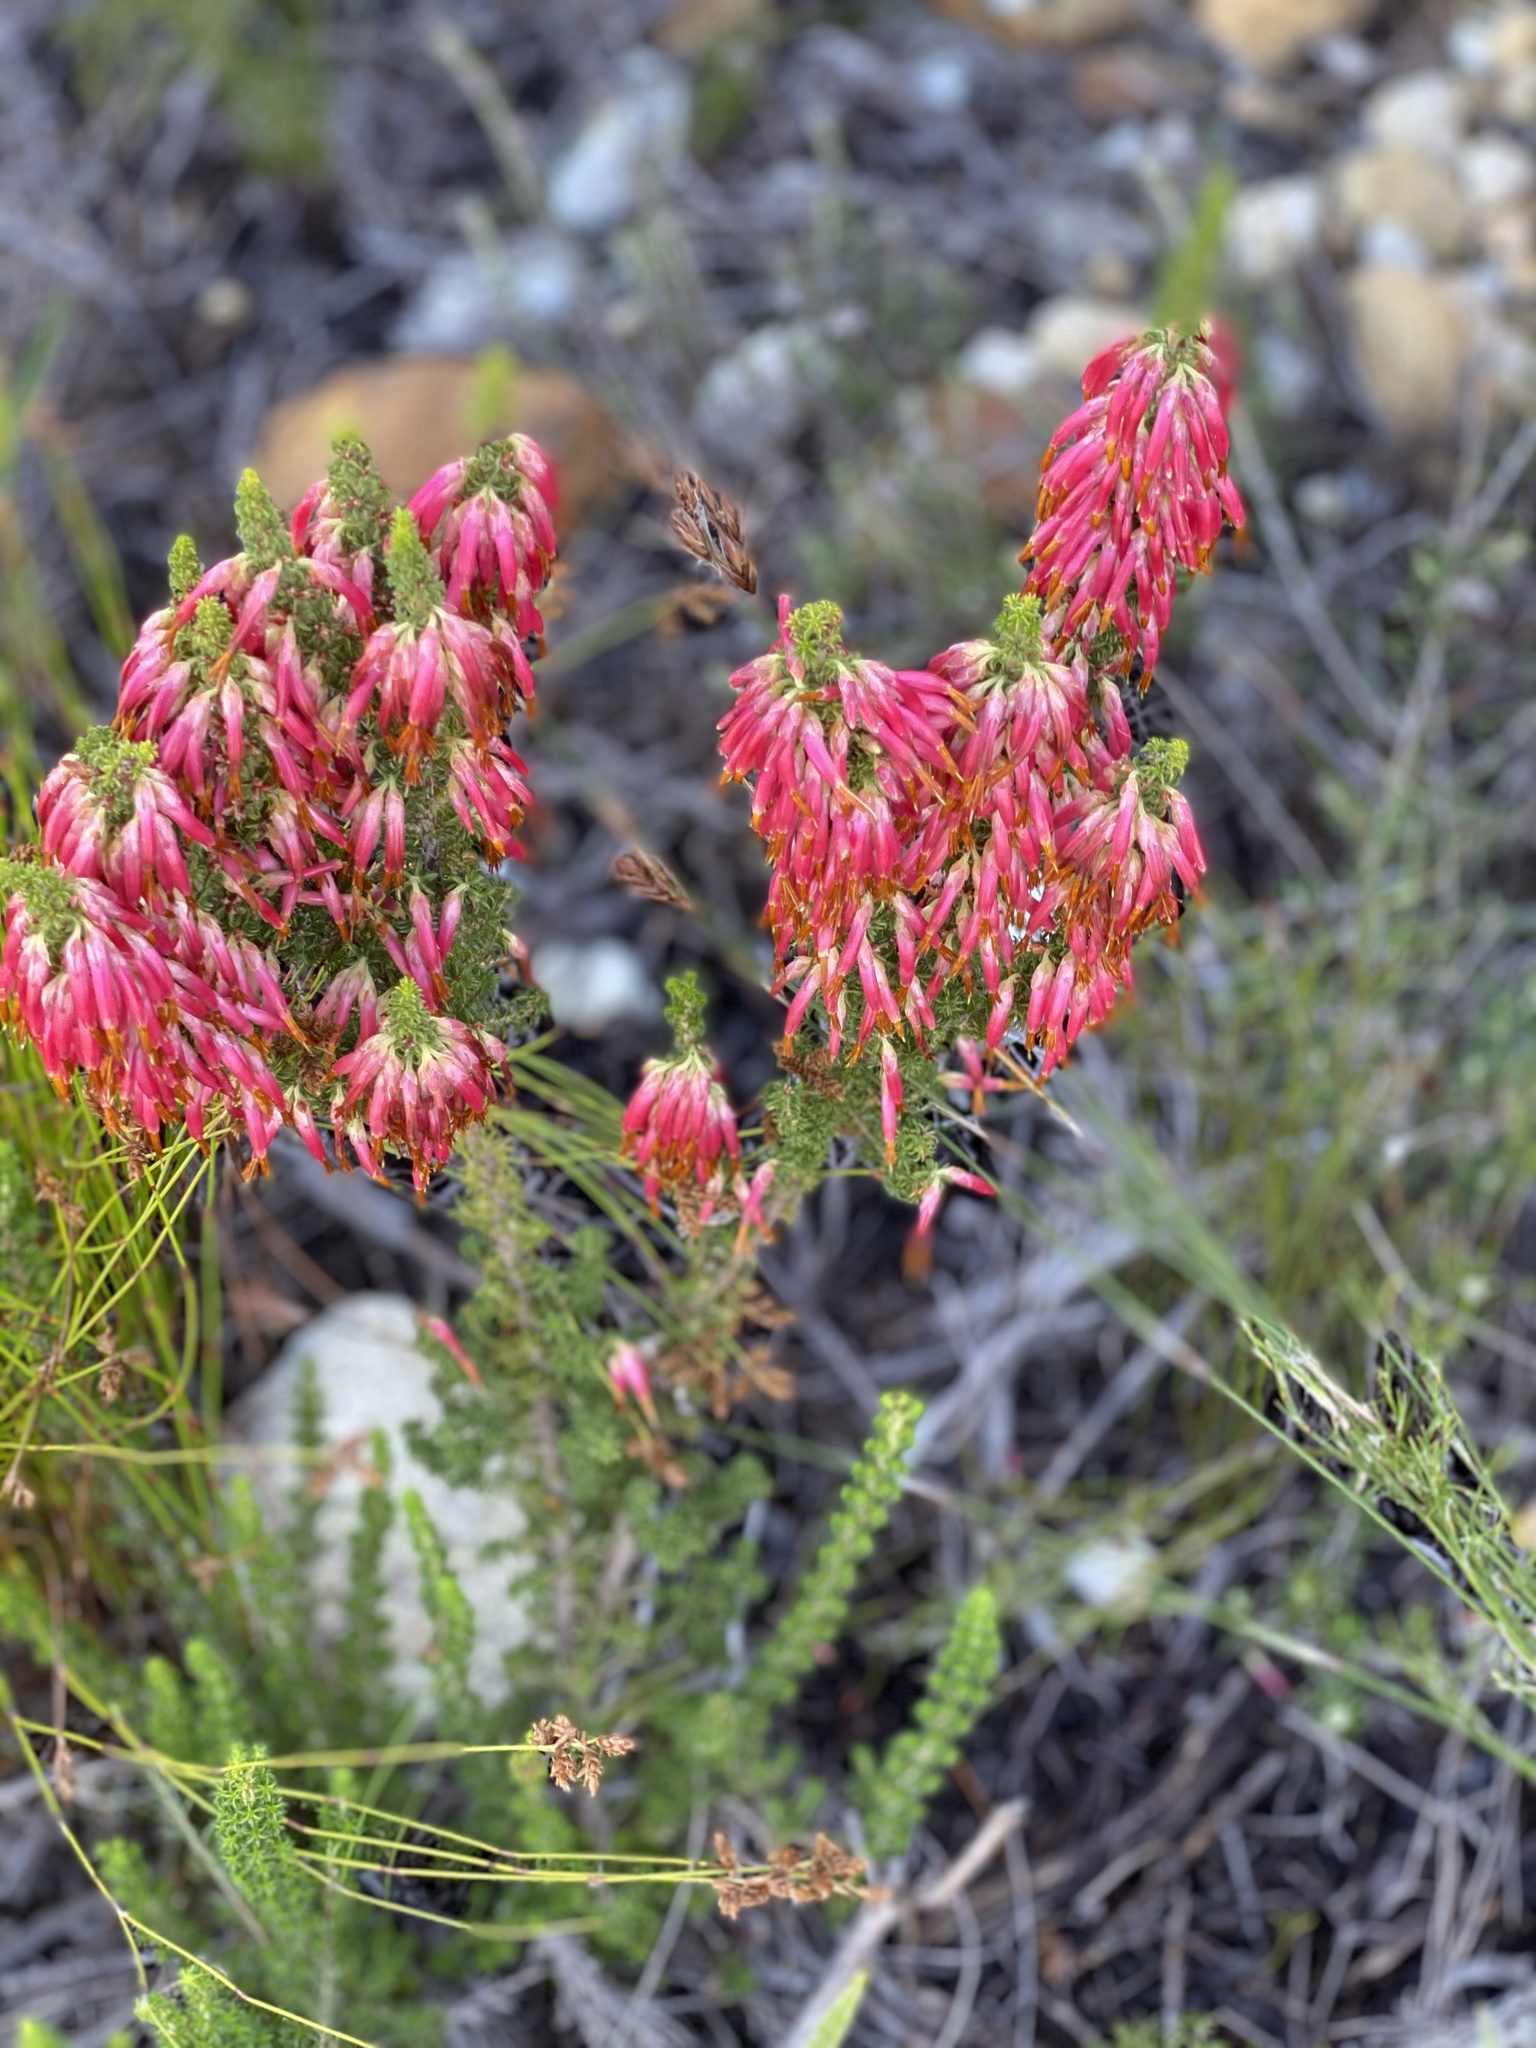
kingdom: Plantae
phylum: Tracheophyta
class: Magnoliopsida
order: Ericales
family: Ericaceae
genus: Erica
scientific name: Erica coccinea
